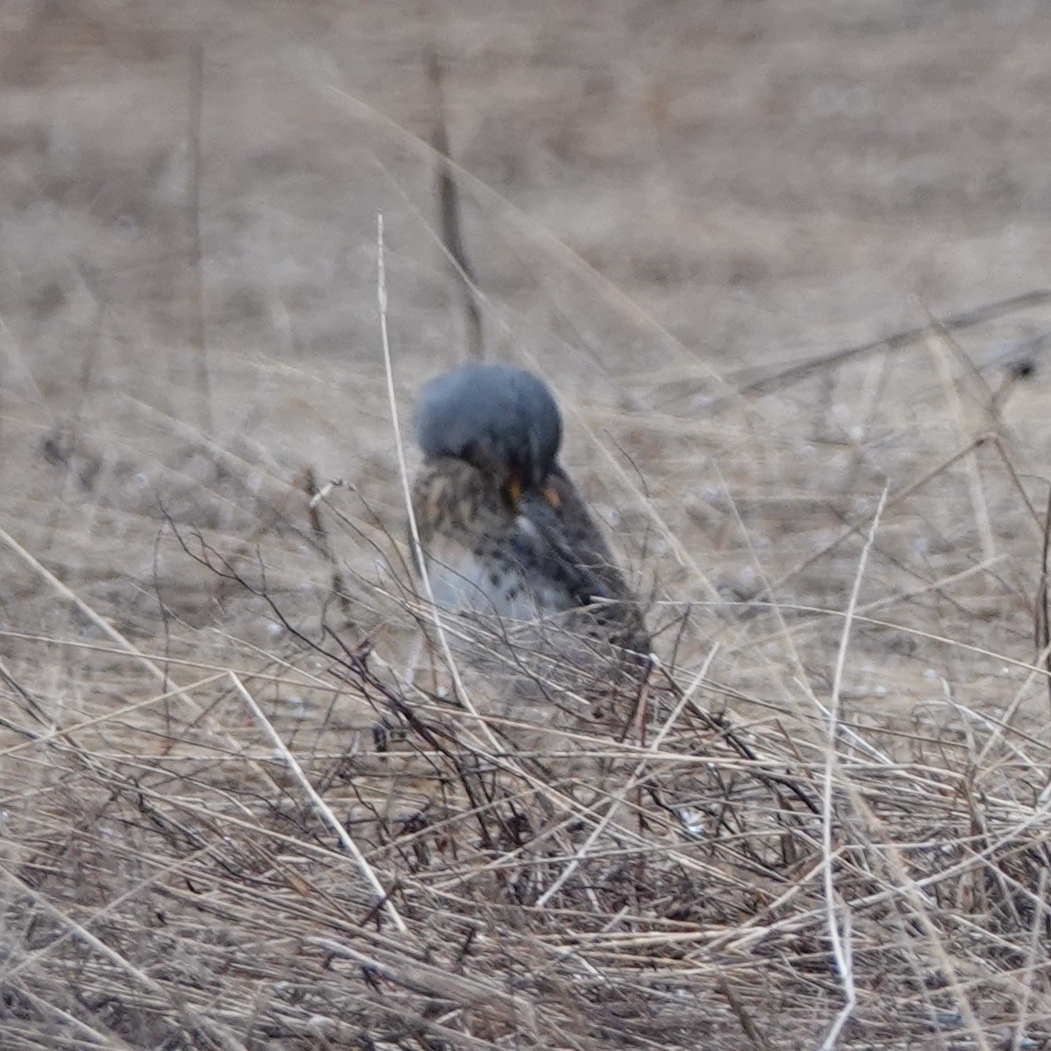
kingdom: Animalia
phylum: Chordata
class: Aves
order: Passeriformes
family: Turdidae
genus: Turdus
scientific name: Turdus pilaris
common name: Fieldfare
